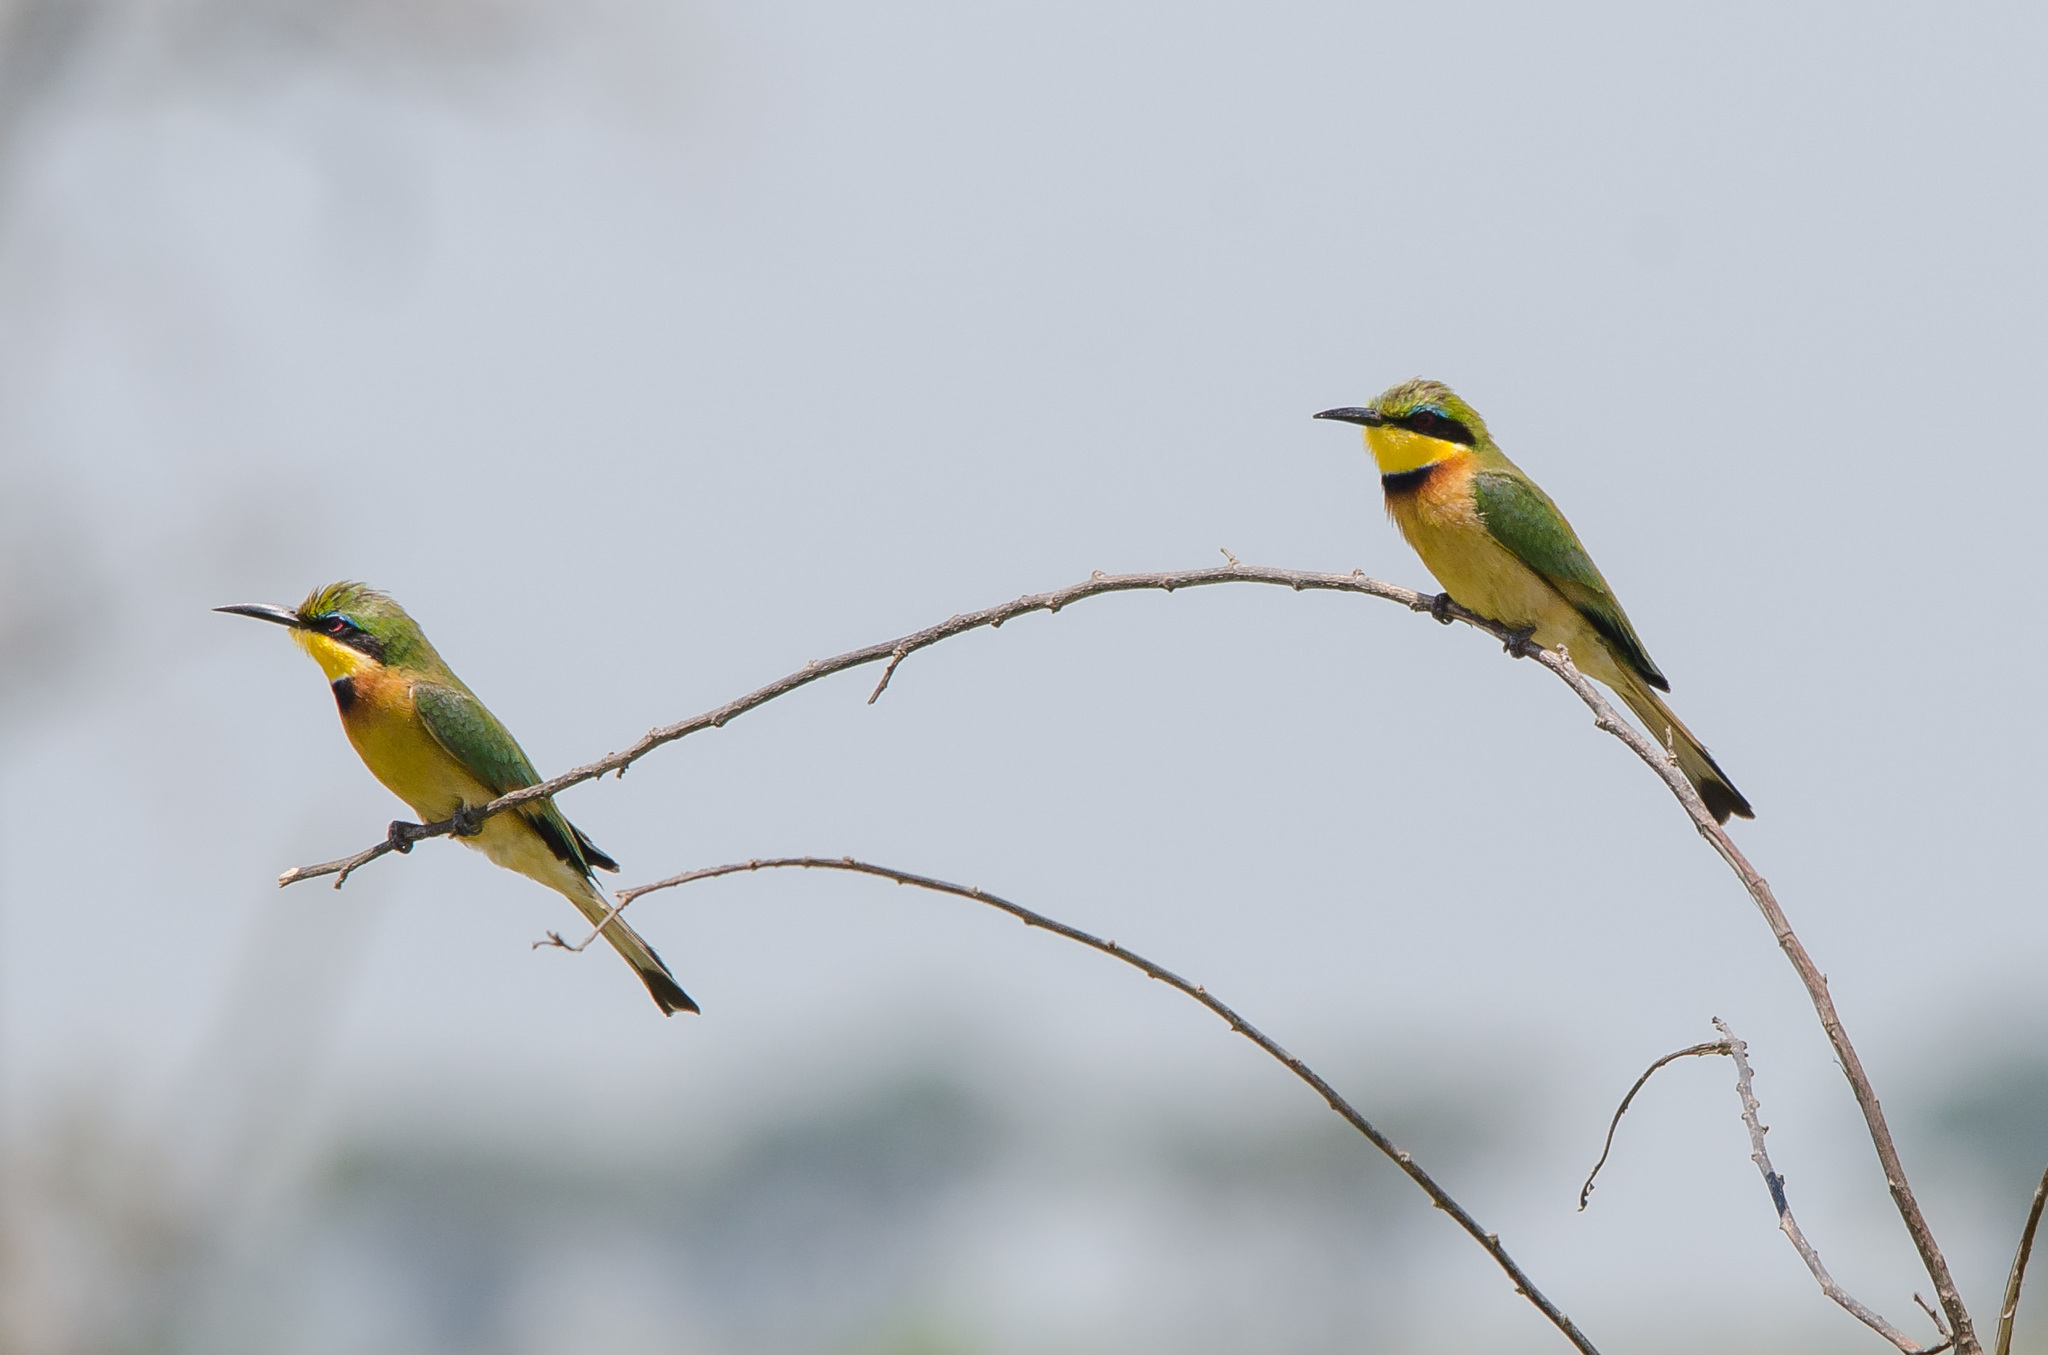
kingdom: Animalia
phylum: Chordata
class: Aves
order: Coraciiformes
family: Meropidae
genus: Merops
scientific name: Merops pusillus
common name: Little bee-eater
